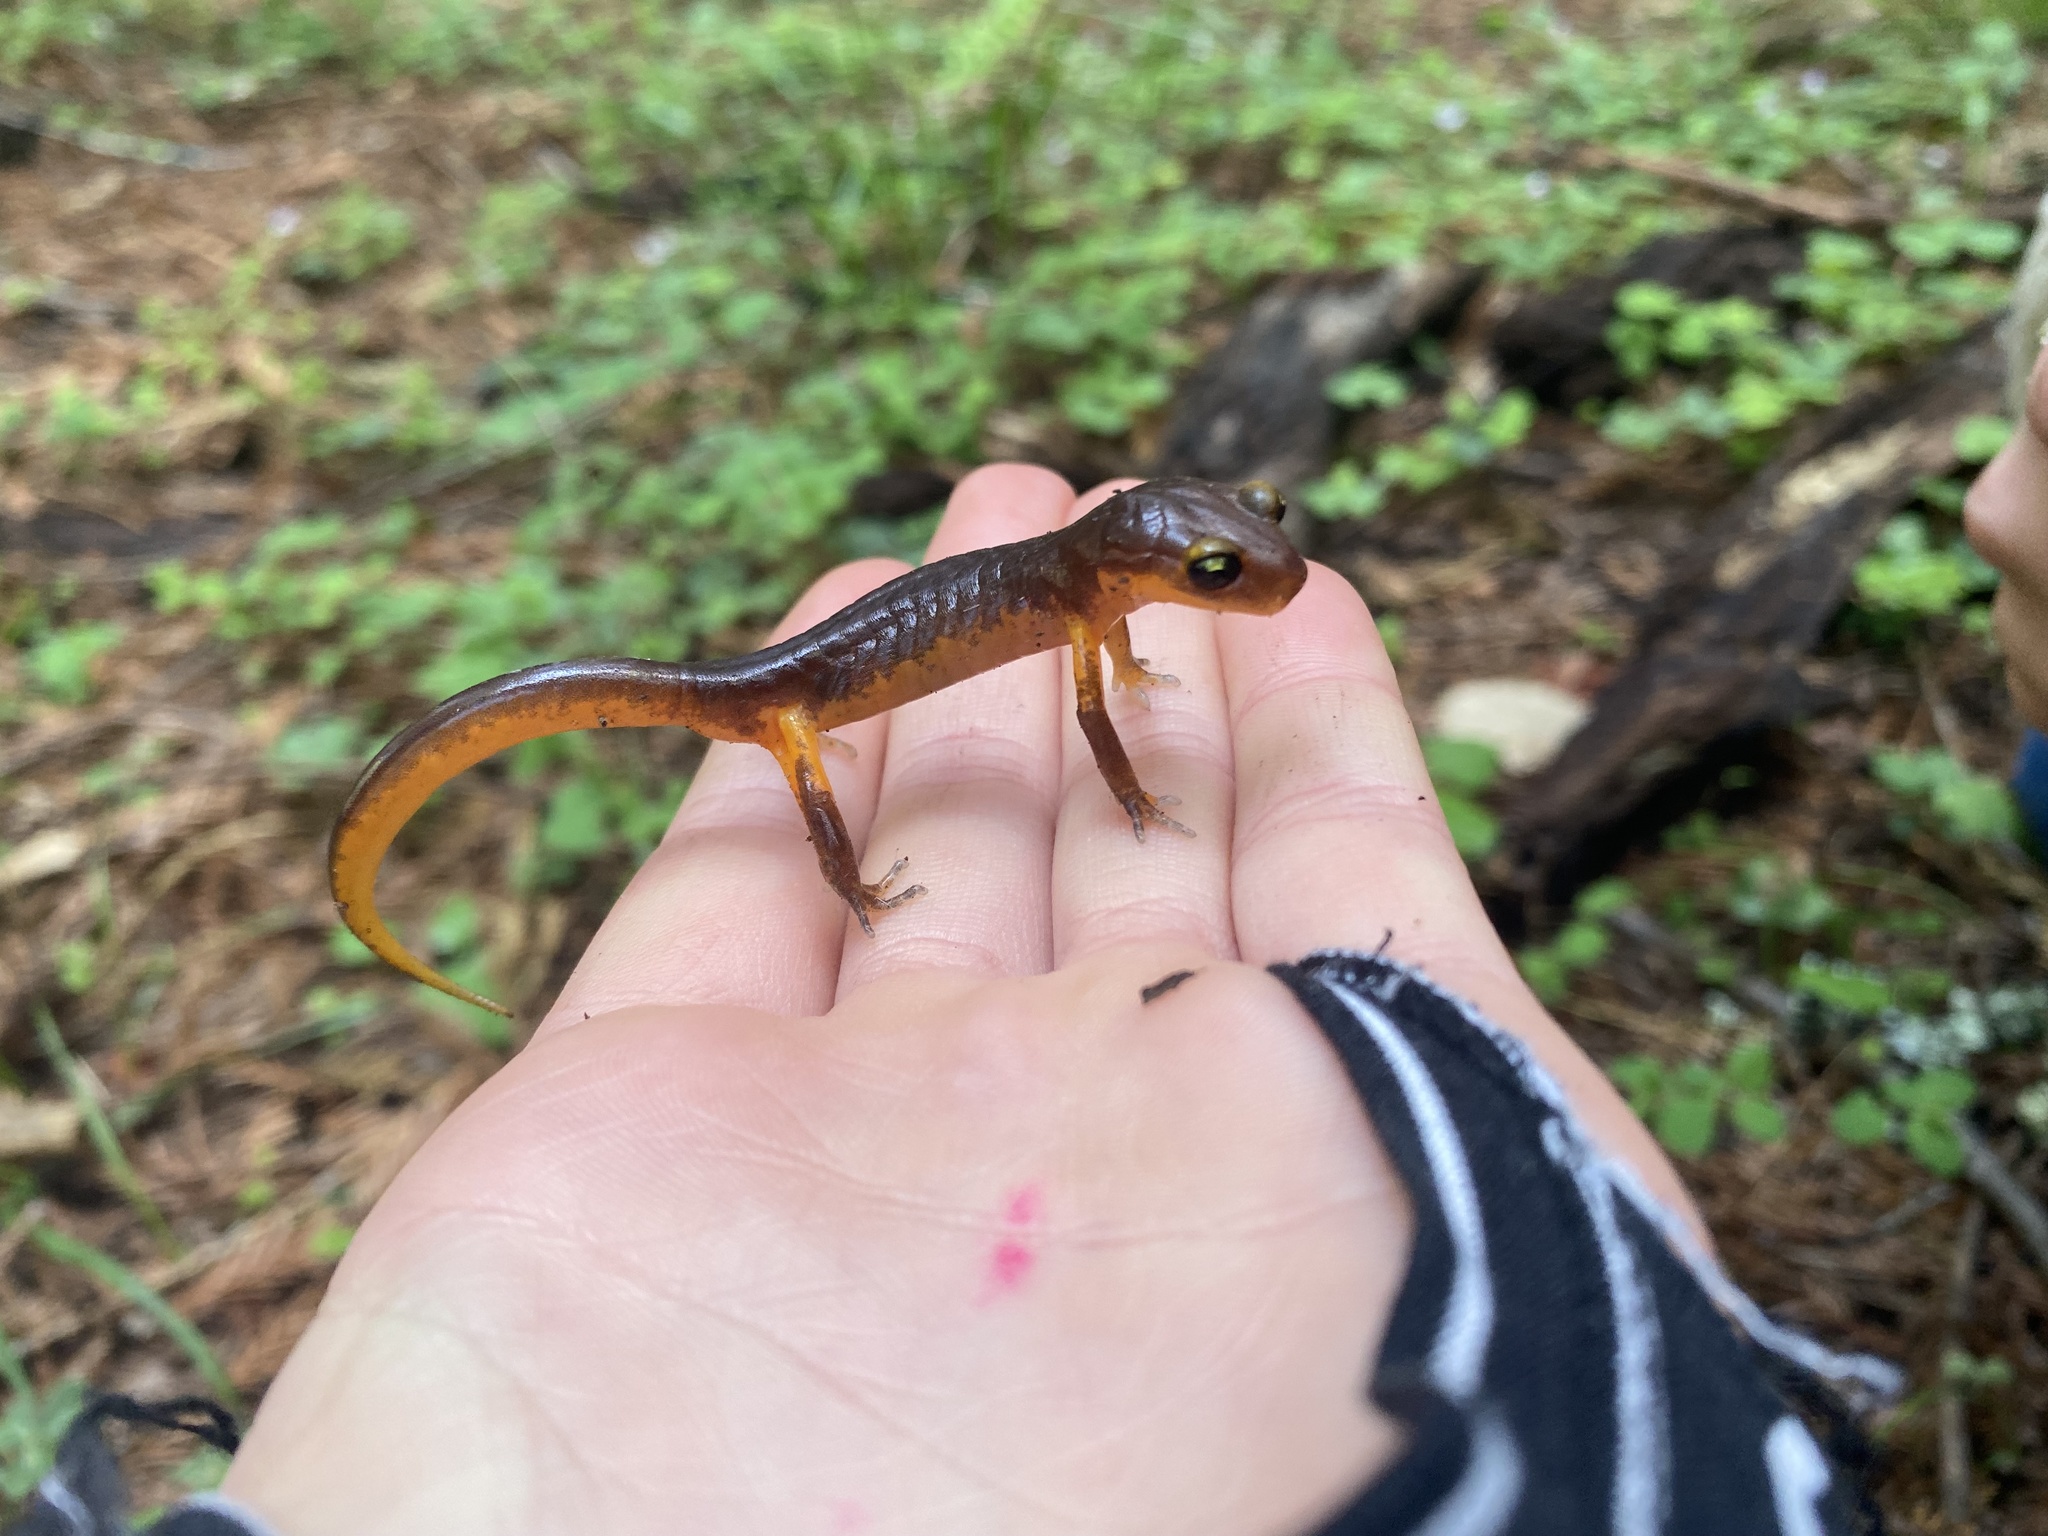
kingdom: Animalia
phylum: Chordata
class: Amphibia
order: Caudata
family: Plethodontidae
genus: Ensatina
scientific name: Ensatina eschscholtzii
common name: Ensatina
